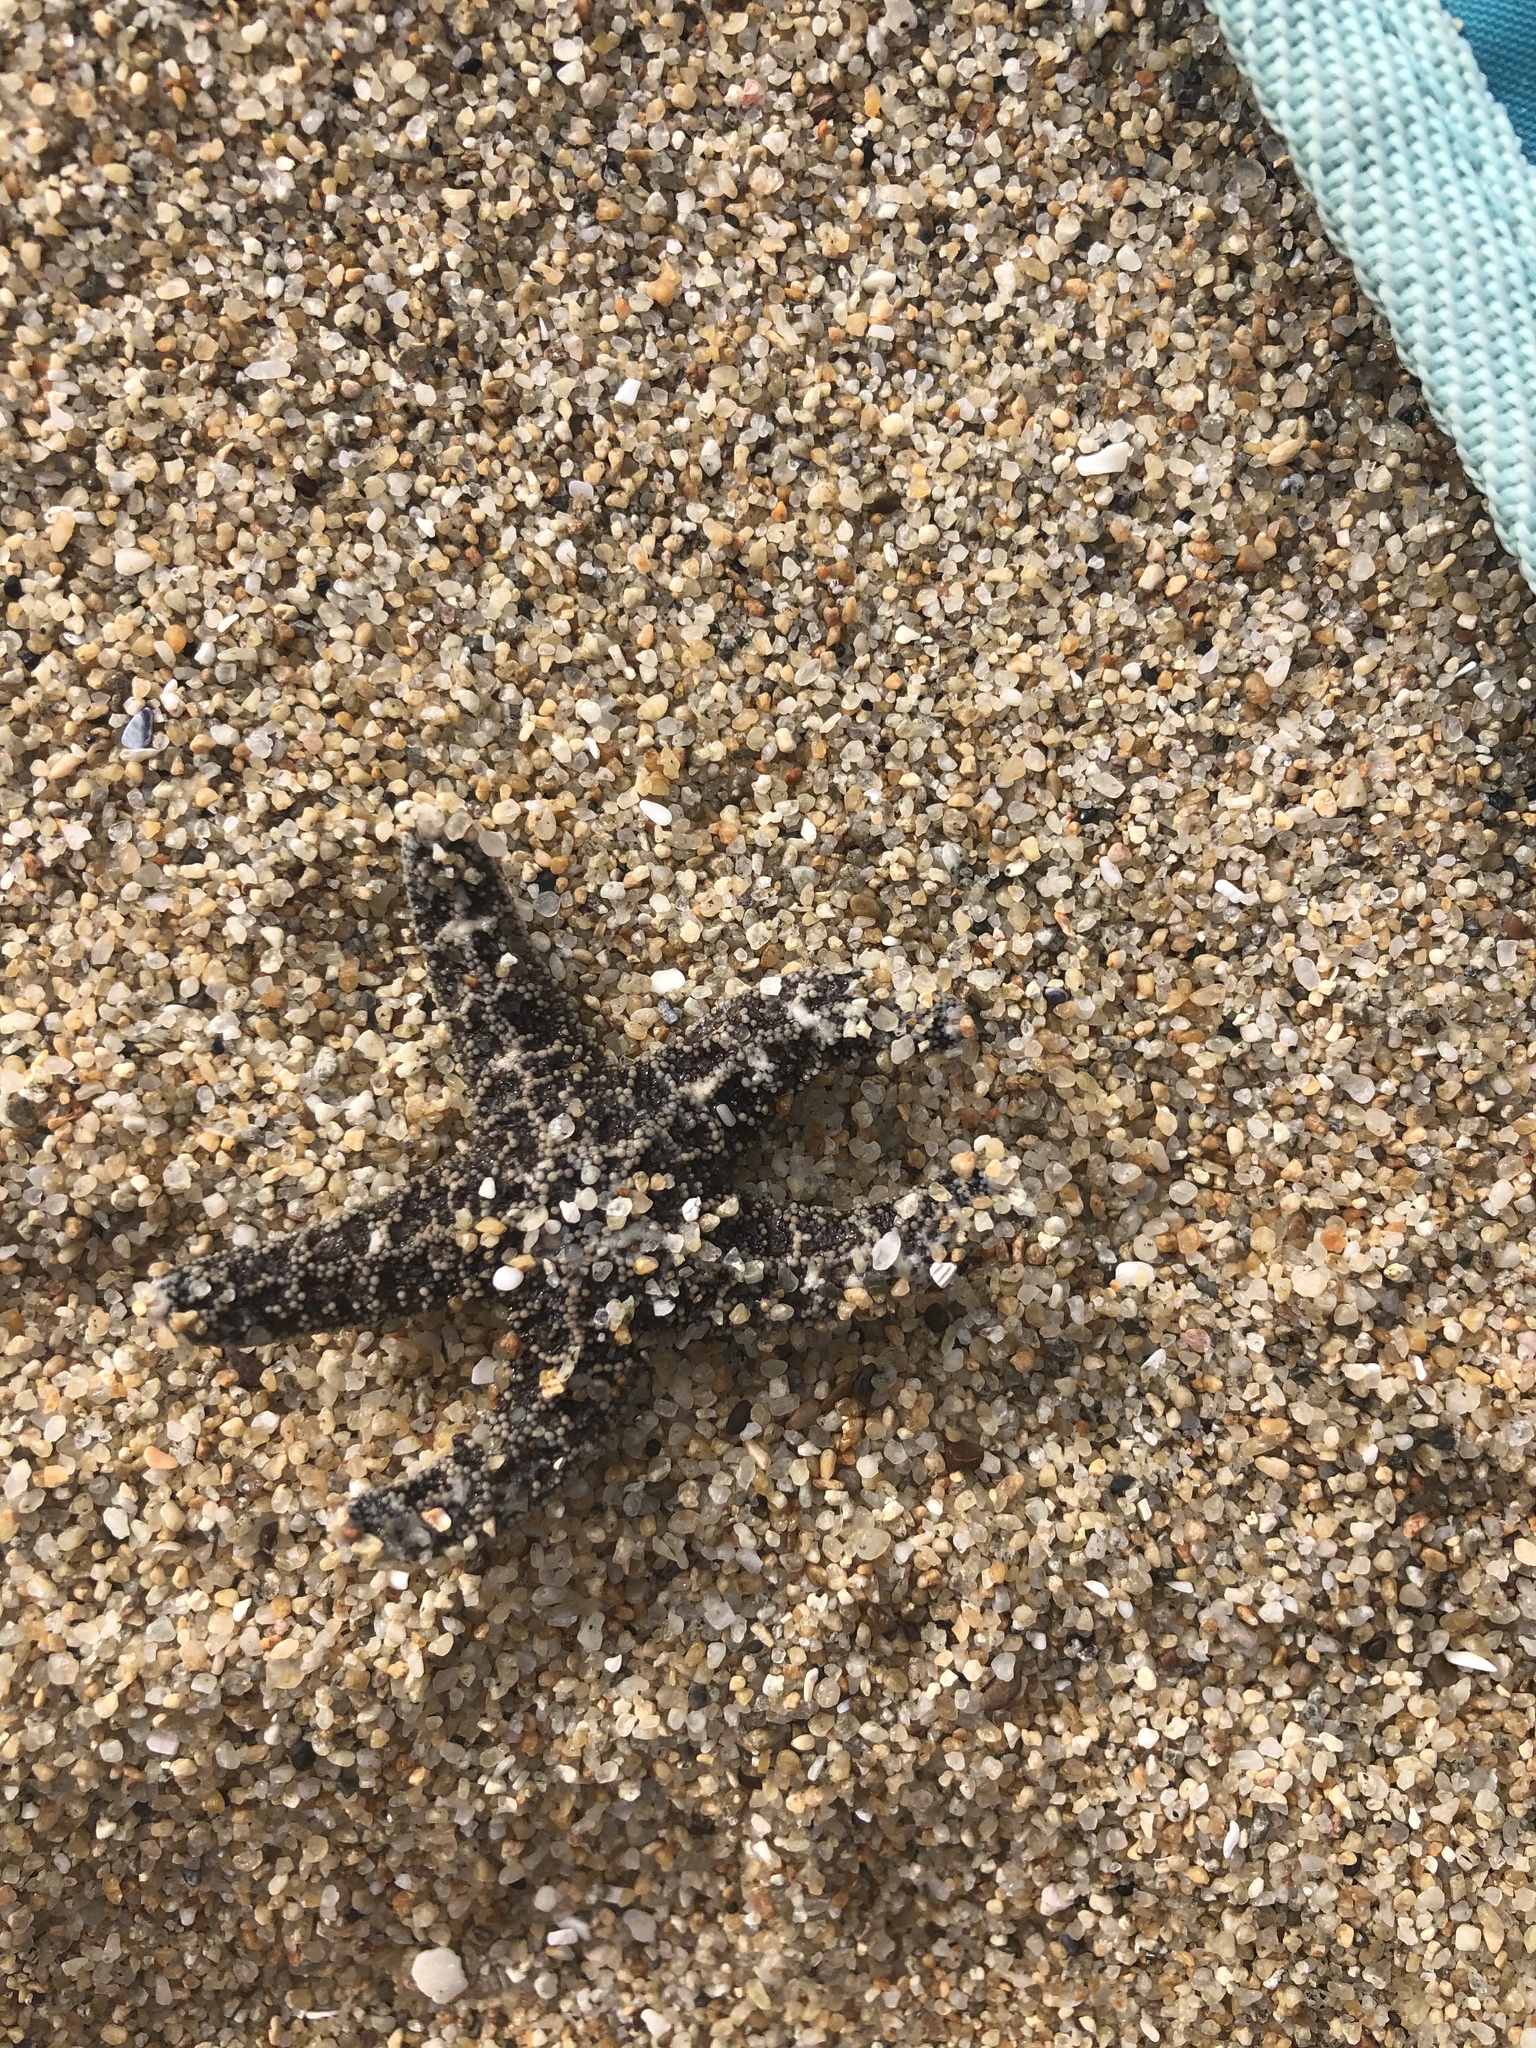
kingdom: Animalia
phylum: Echinodermata
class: Asteroidea
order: Forcipulatida
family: Asteriidae
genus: Pisaster
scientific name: Pisaster ochraceus
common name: Ochre stars
